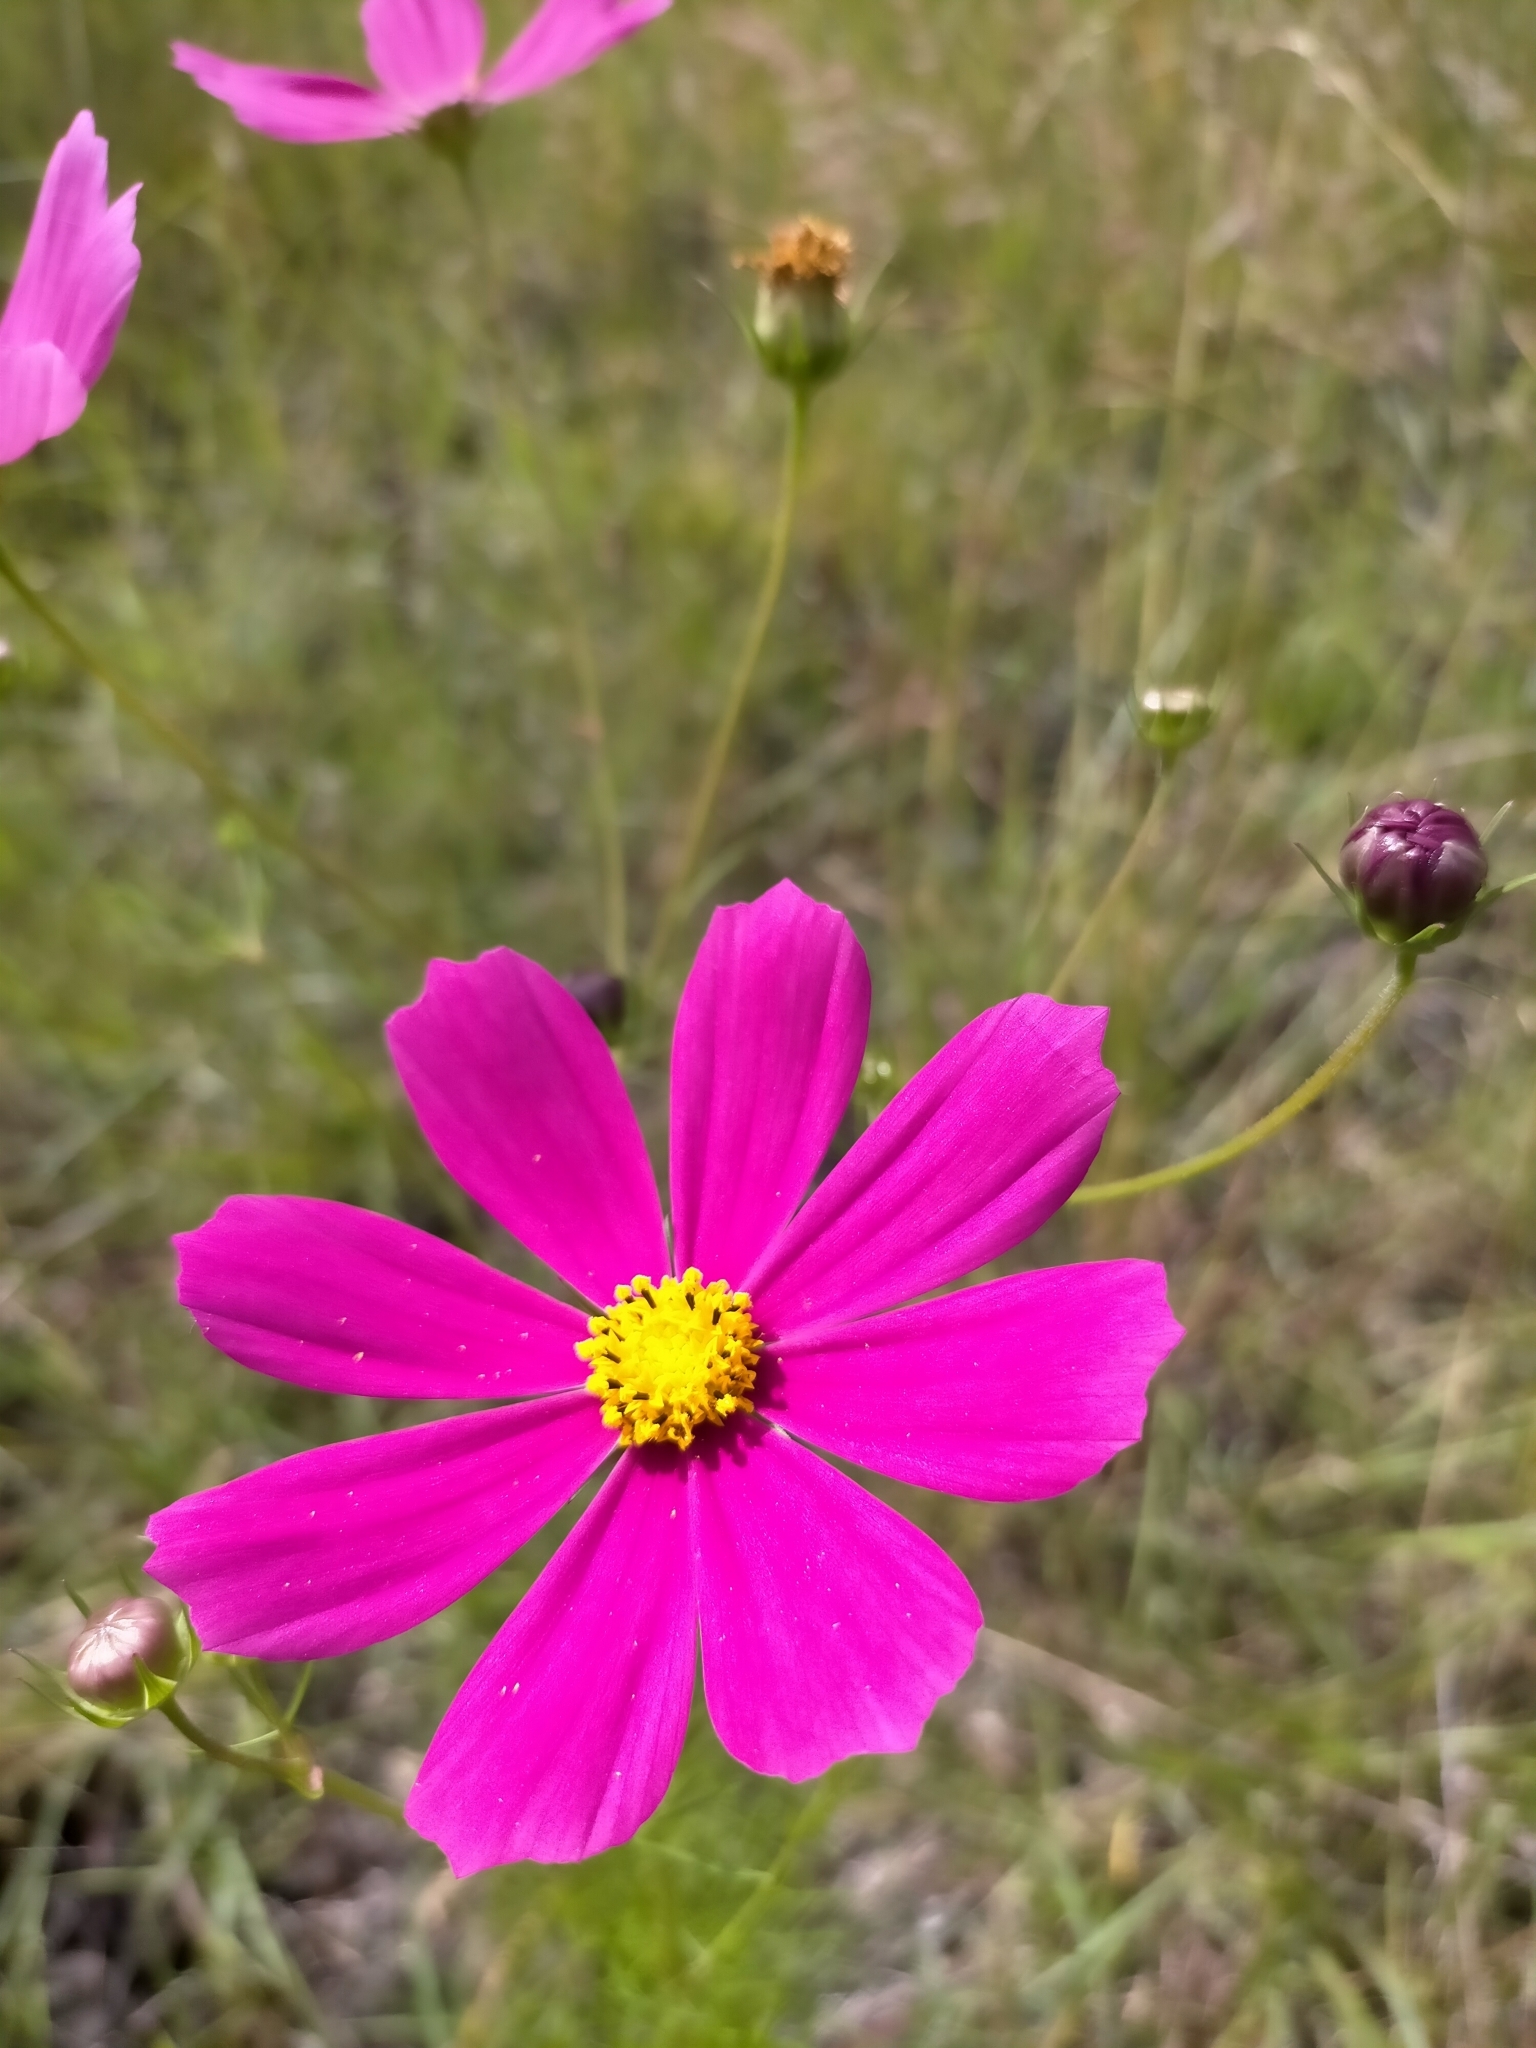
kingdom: Plantae
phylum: Tracheophyta
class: Magnoliopsida
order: Asterales
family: Asteraceae
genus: Cosmos
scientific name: Cosmos bipinnatus
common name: Garden cosmos
